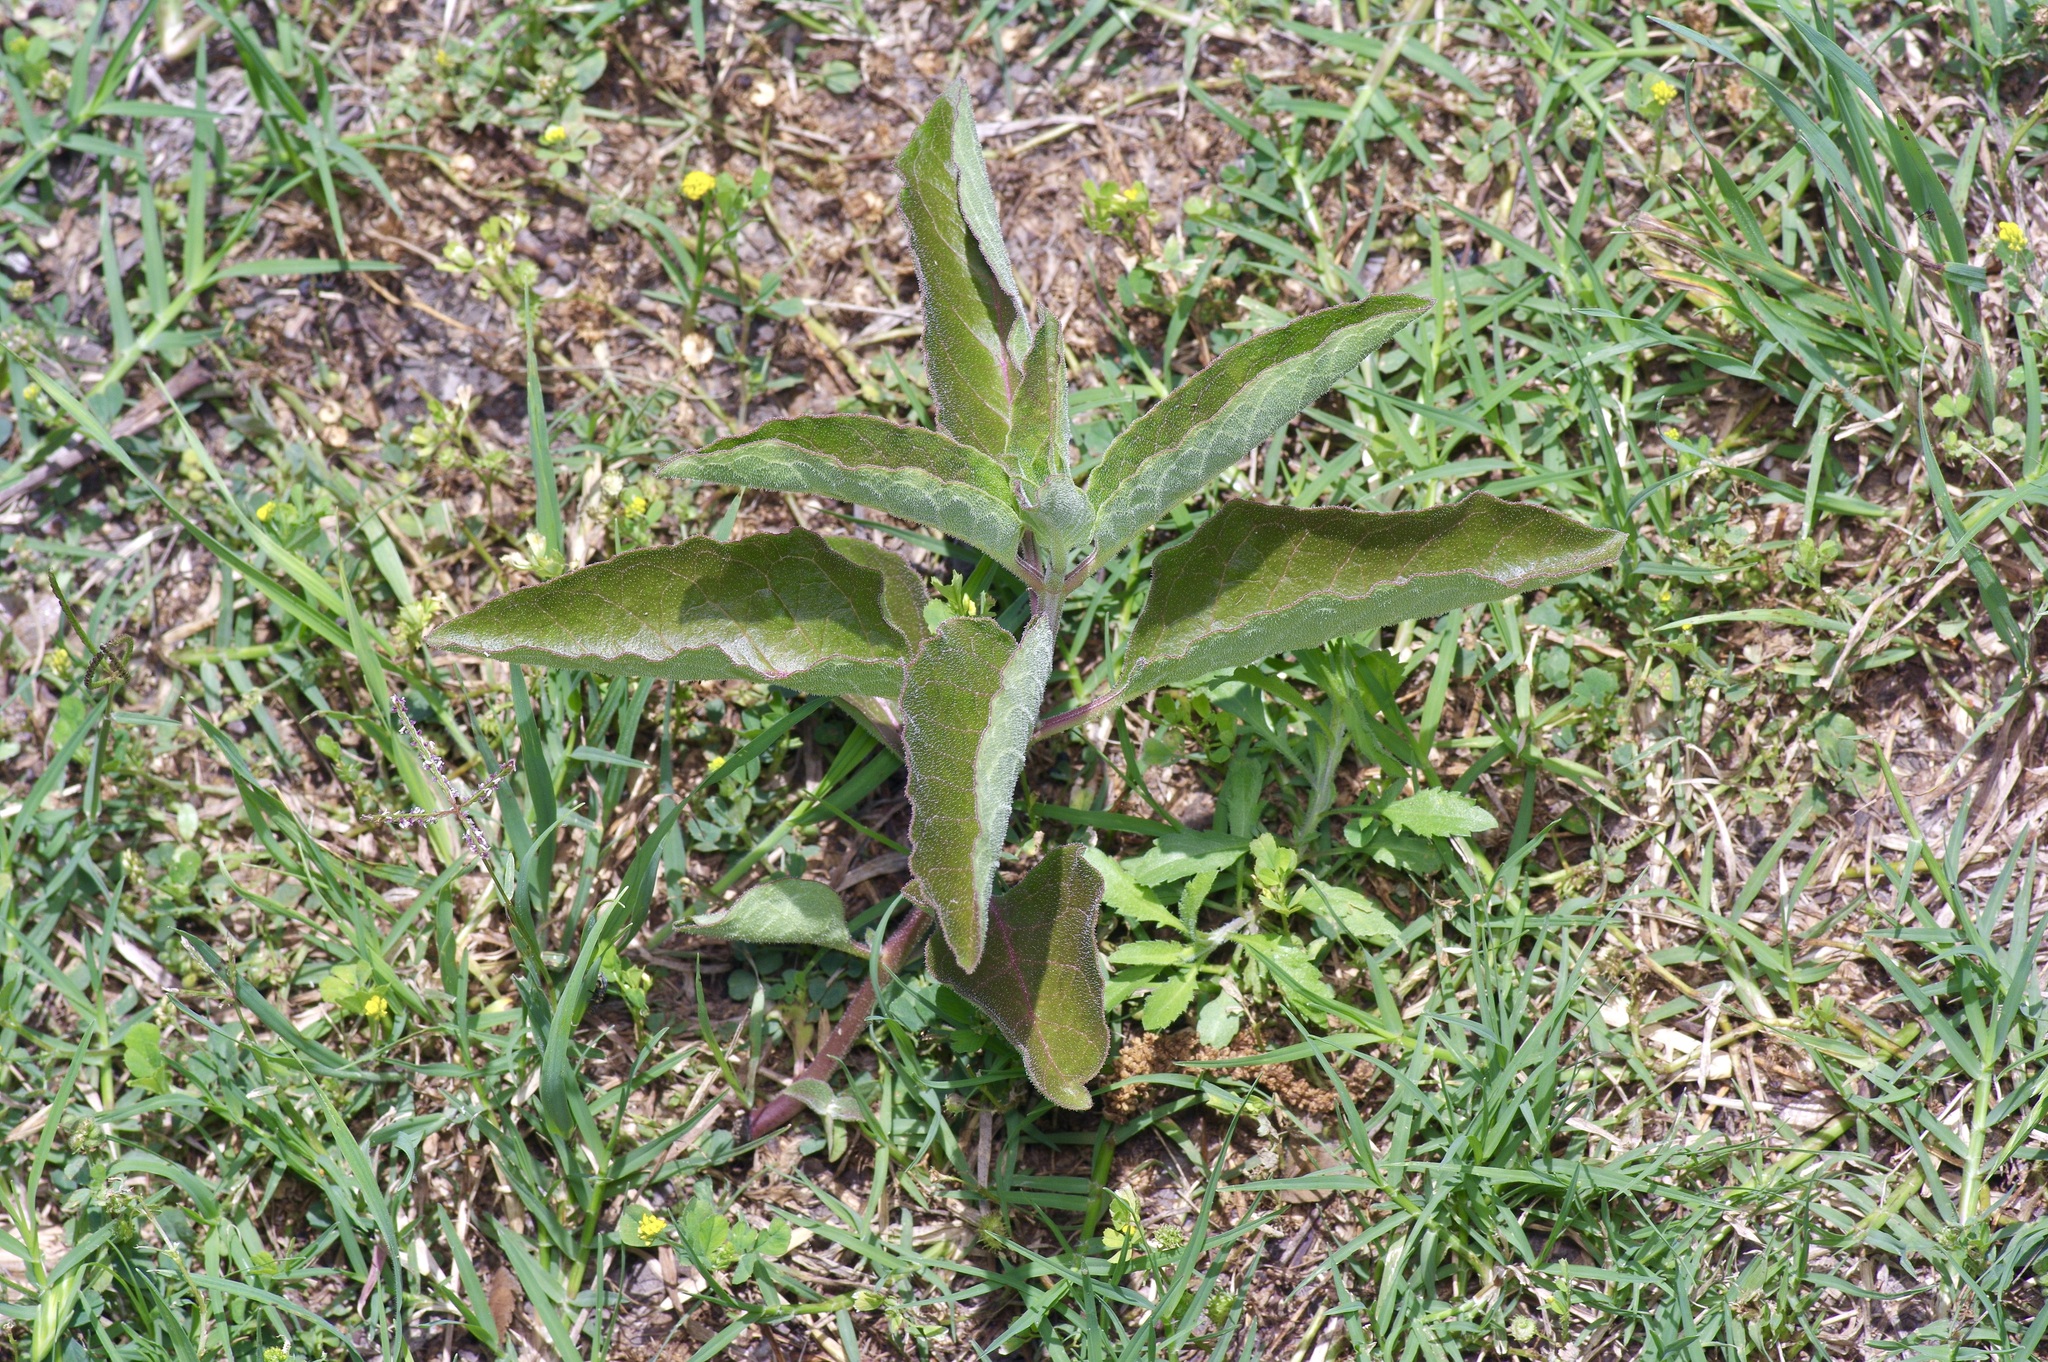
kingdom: Plantae
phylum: Tracheophyta
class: Magnoliopsida
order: Gentianales
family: Apocynaceae
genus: Asclepias
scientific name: Asclepias oenotheroides
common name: Zizotes milkweed
